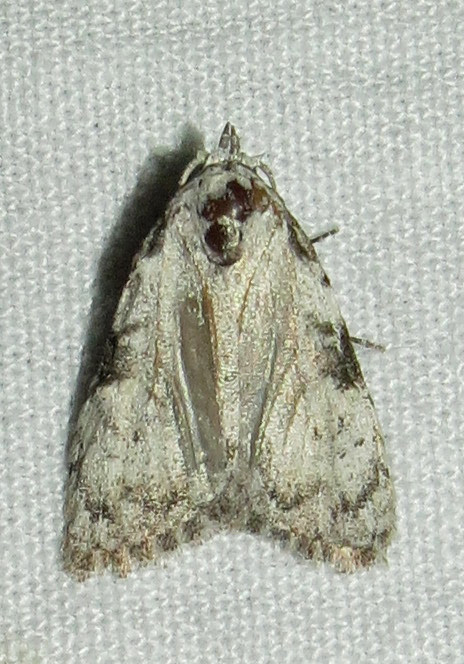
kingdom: Animalia
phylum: Arthropoda
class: Insecta
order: Lepidoptera
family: Nolidae
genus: Meganola
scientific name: Meganola minuscula
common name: Confused meganola moth
